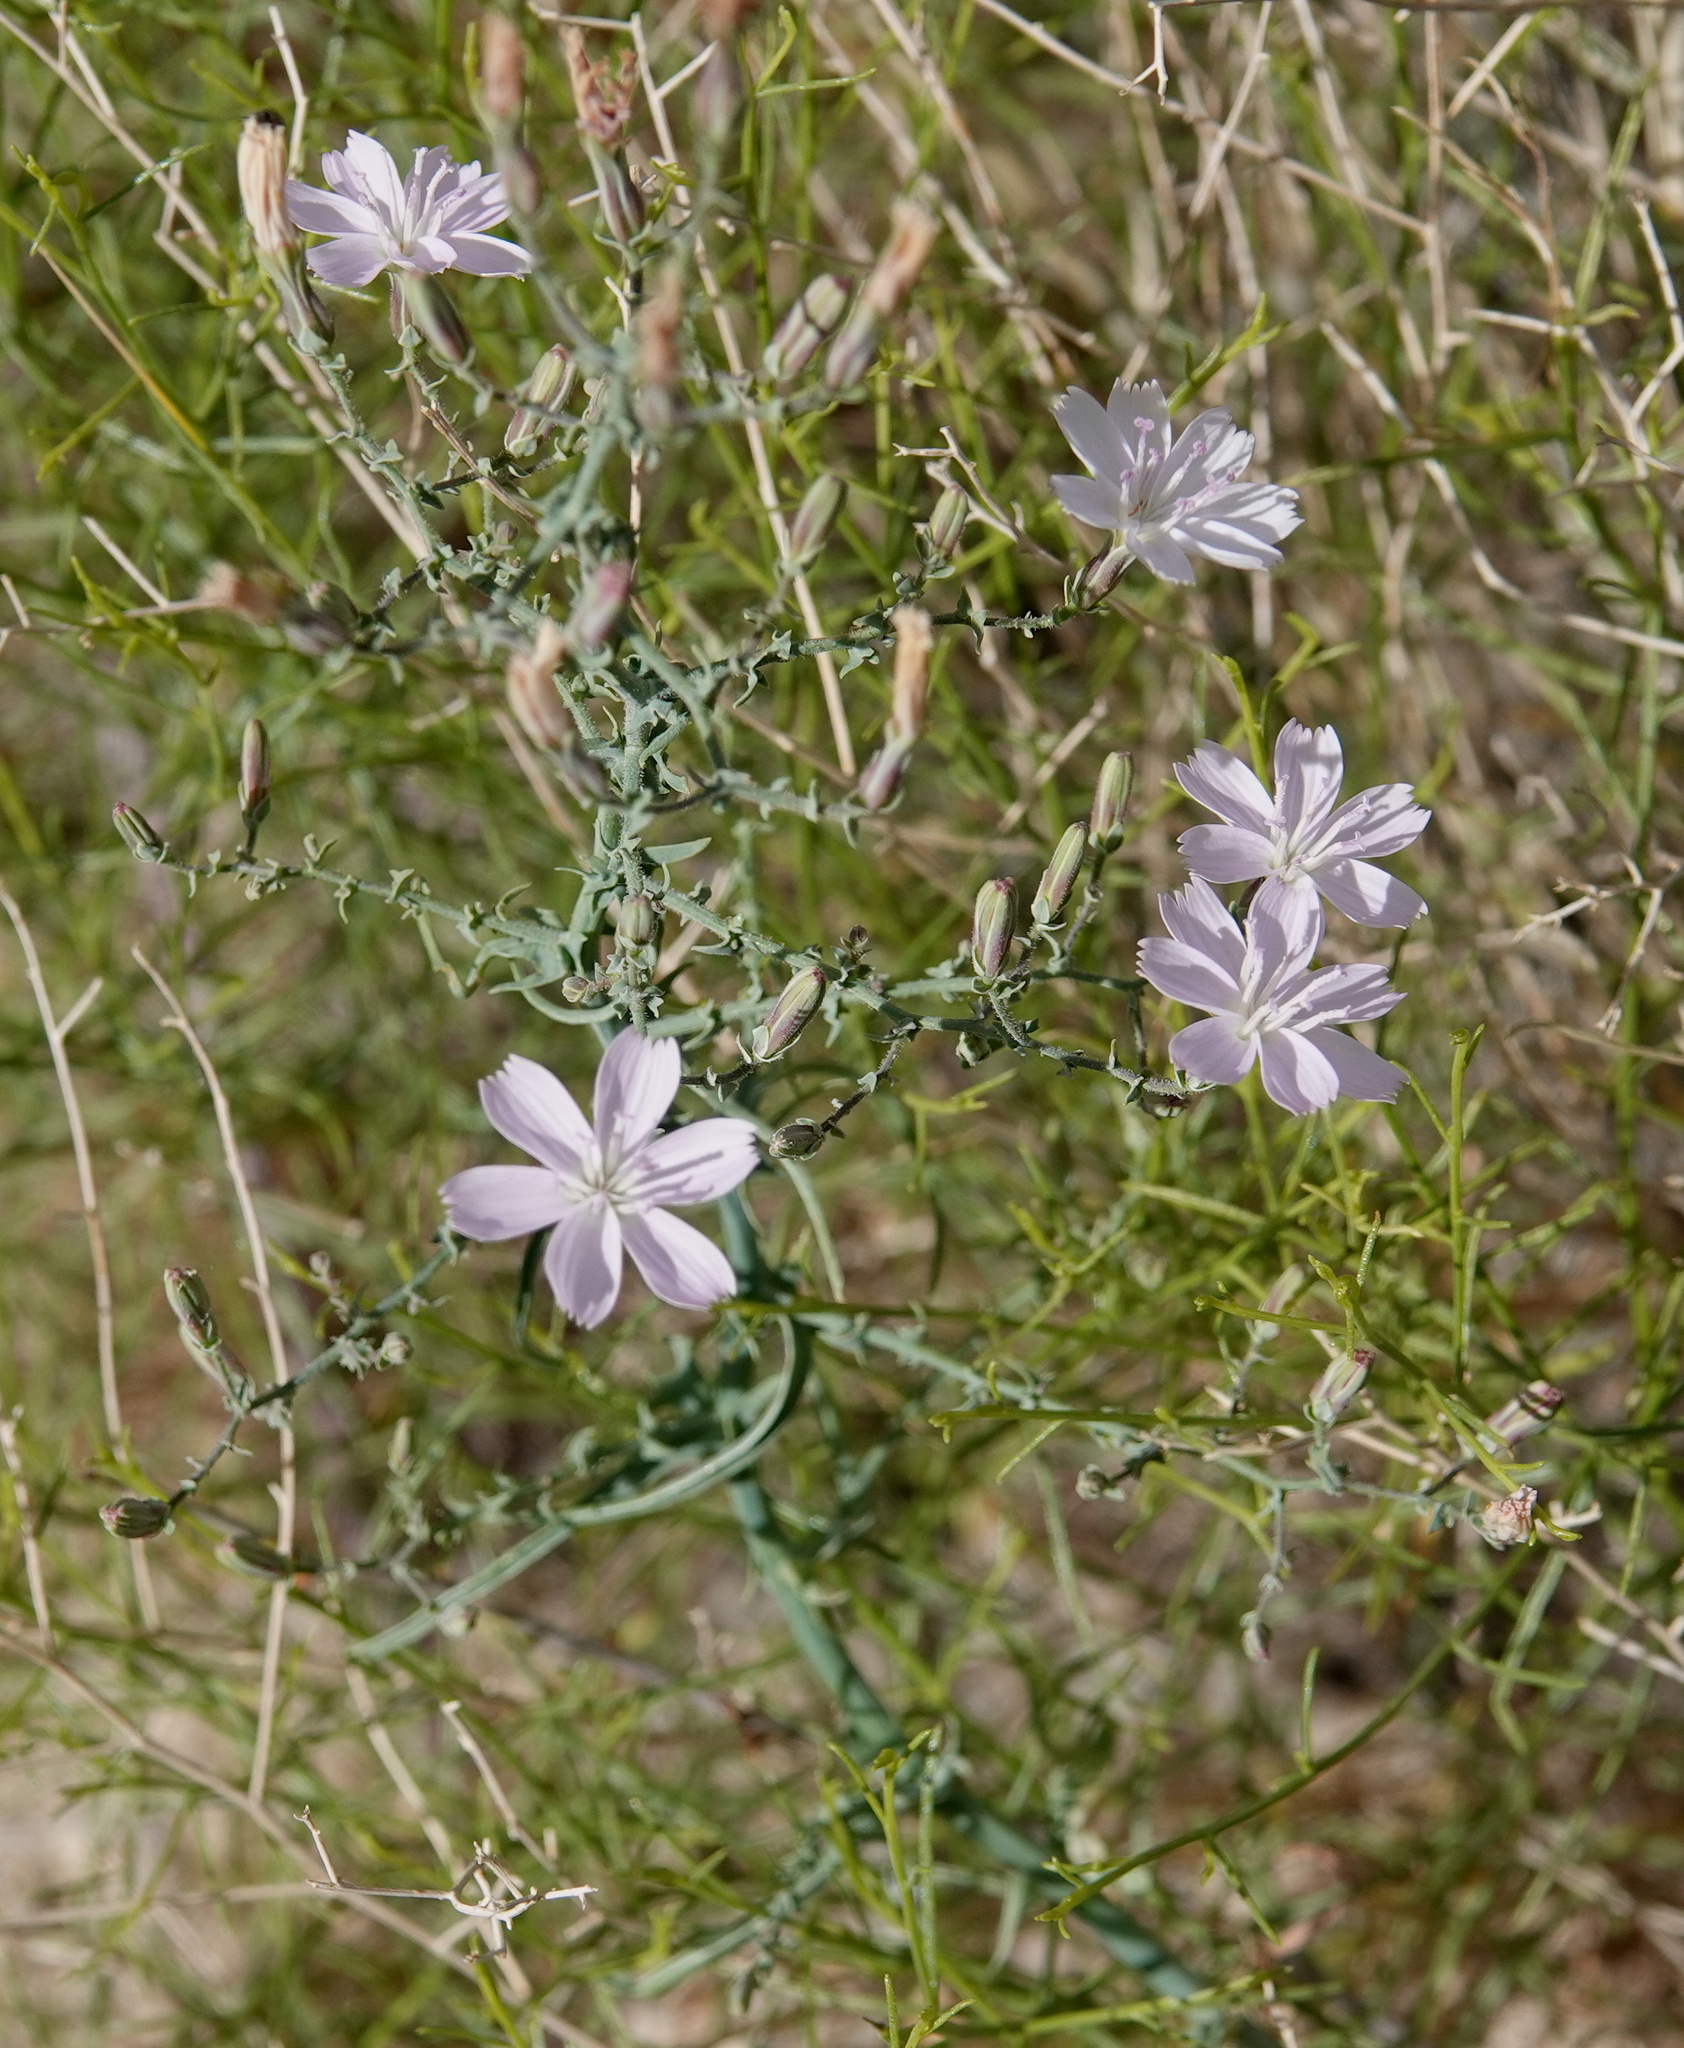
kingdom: Plantae
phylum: Tracheophyta
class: Magnoliopsida
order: Asterales
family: Asteraceae
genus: Stephanomeria
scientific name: Stephanomeria pauciflora
